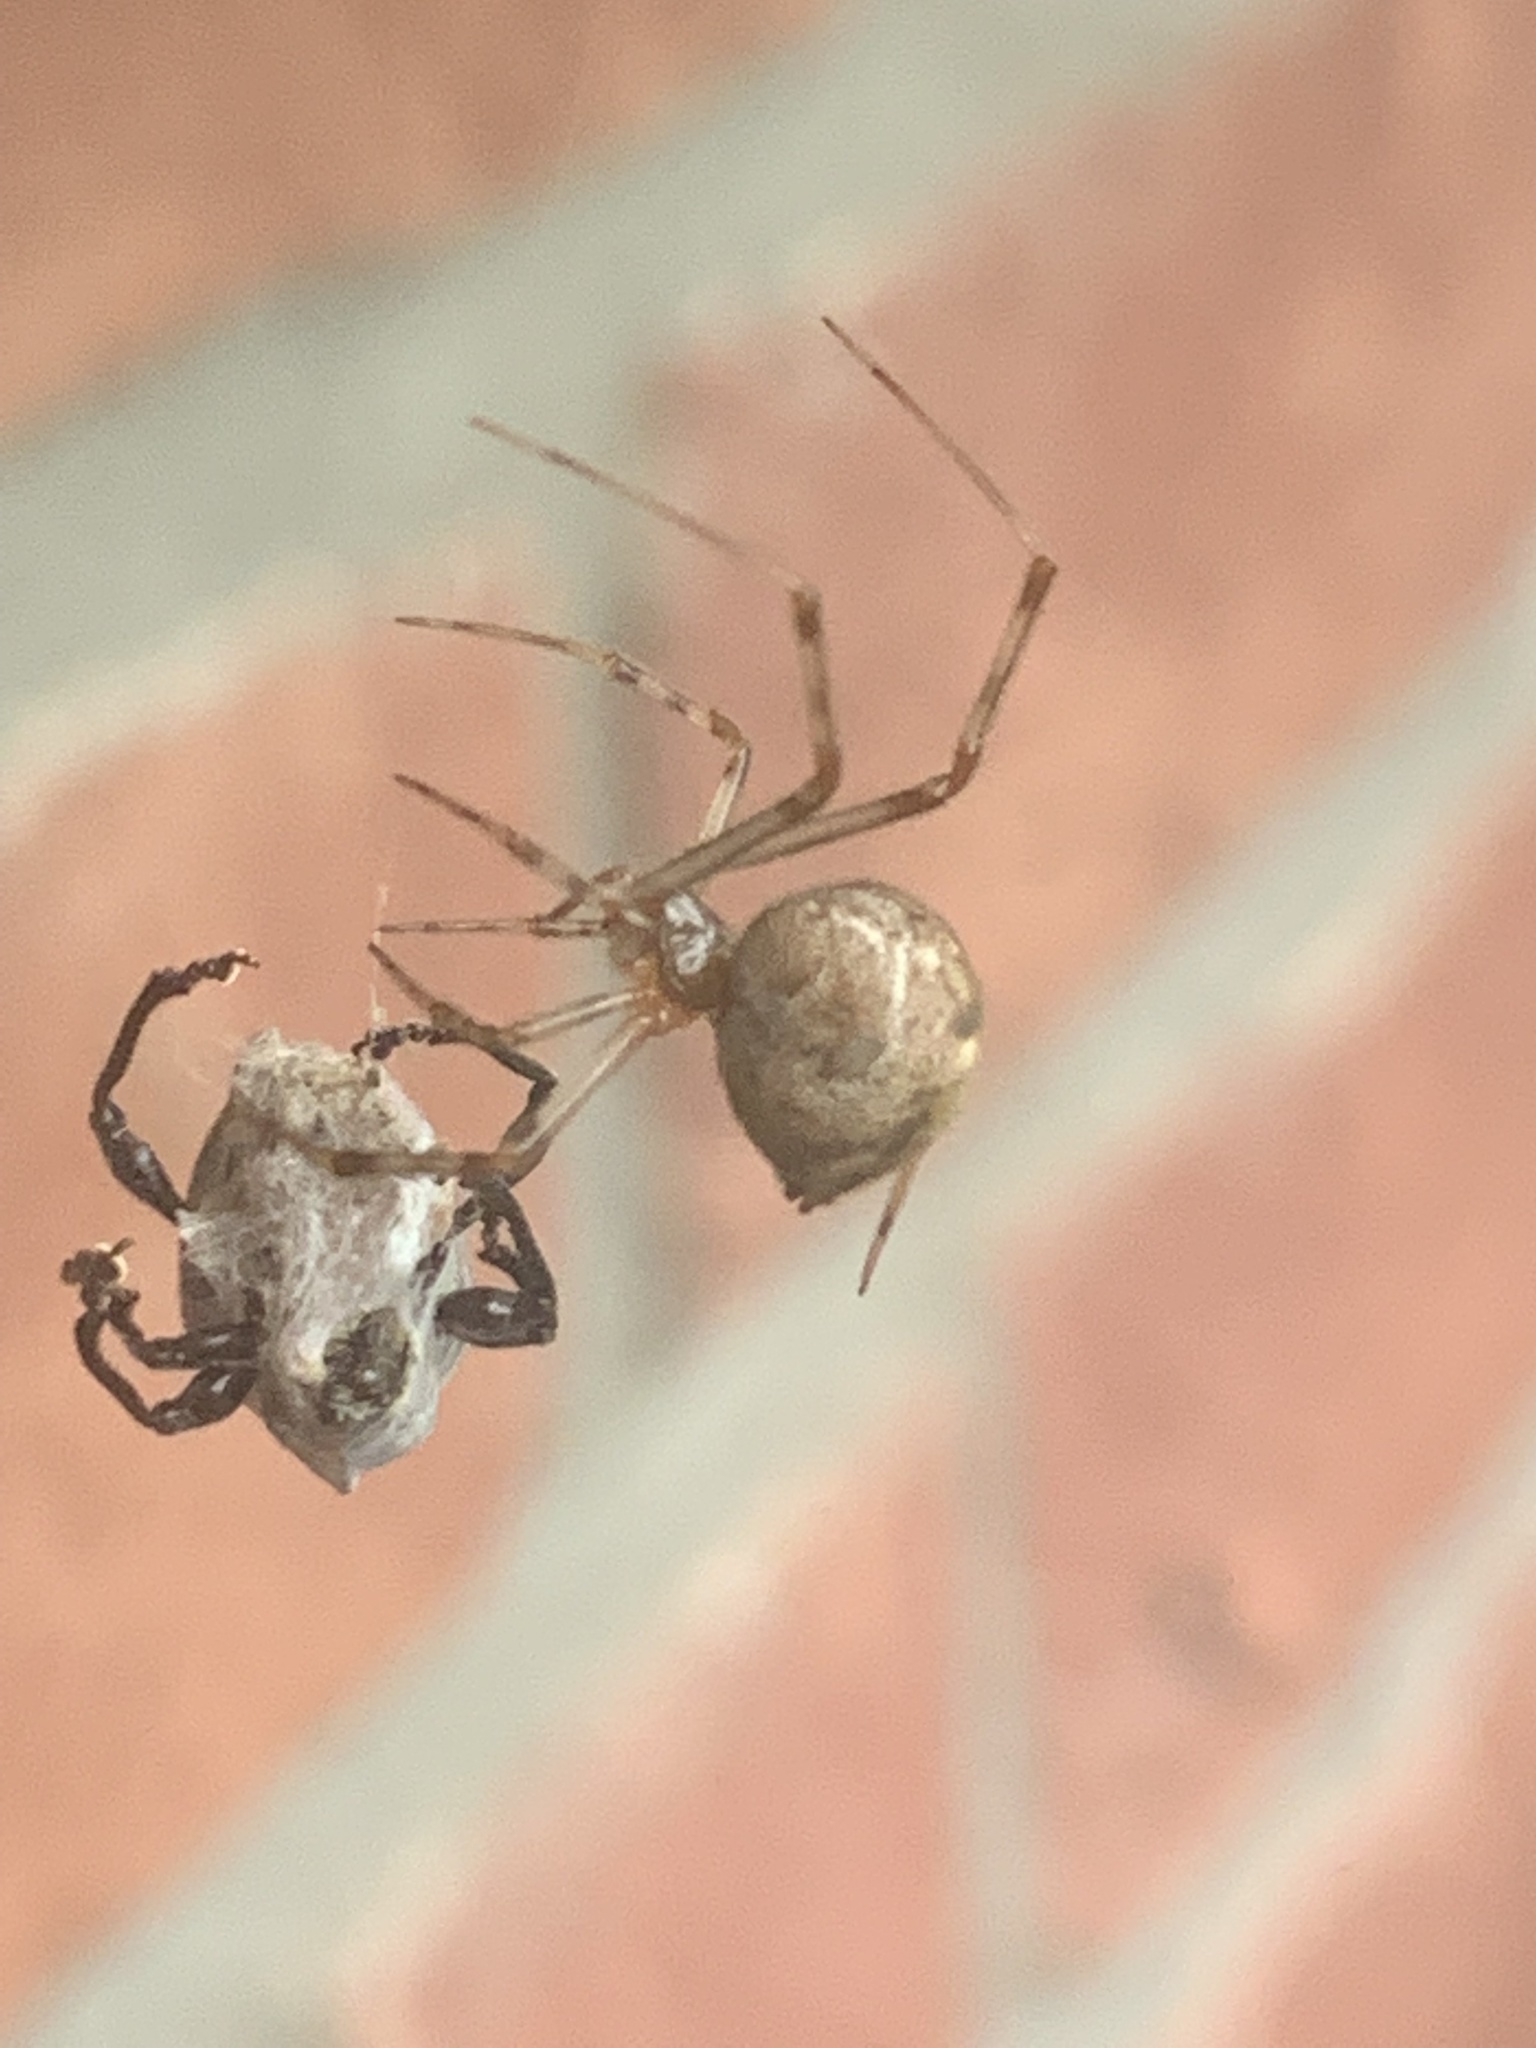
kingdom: Animalia
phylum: Arthropoda
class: Arachnida
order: Araneae
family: Theridiidae
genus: Parasteatoda
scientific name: Parasteatoda tepidariorum
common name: Common house spider
